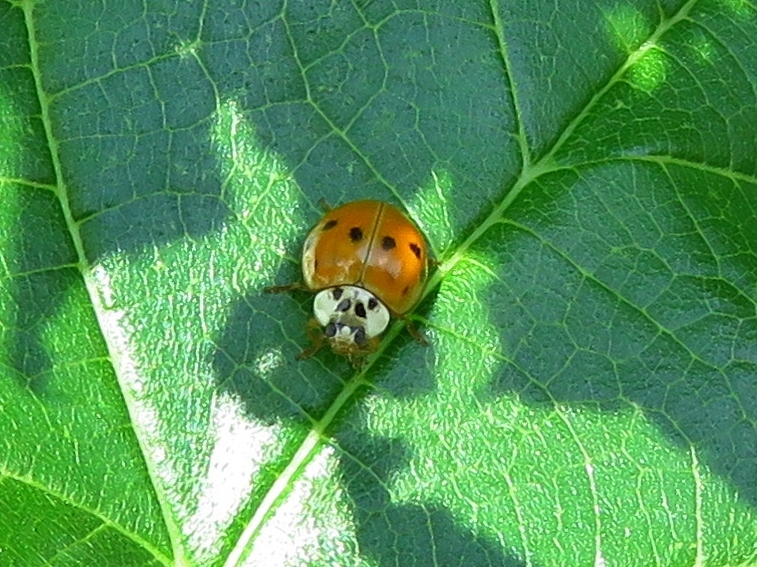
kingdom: Animalia
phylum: Arthropoda
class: Insecta
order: Coleoptera
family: Coccinellidae
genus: Harmonia
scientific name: Harmonia axyridis
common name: Harlequin ladybird
